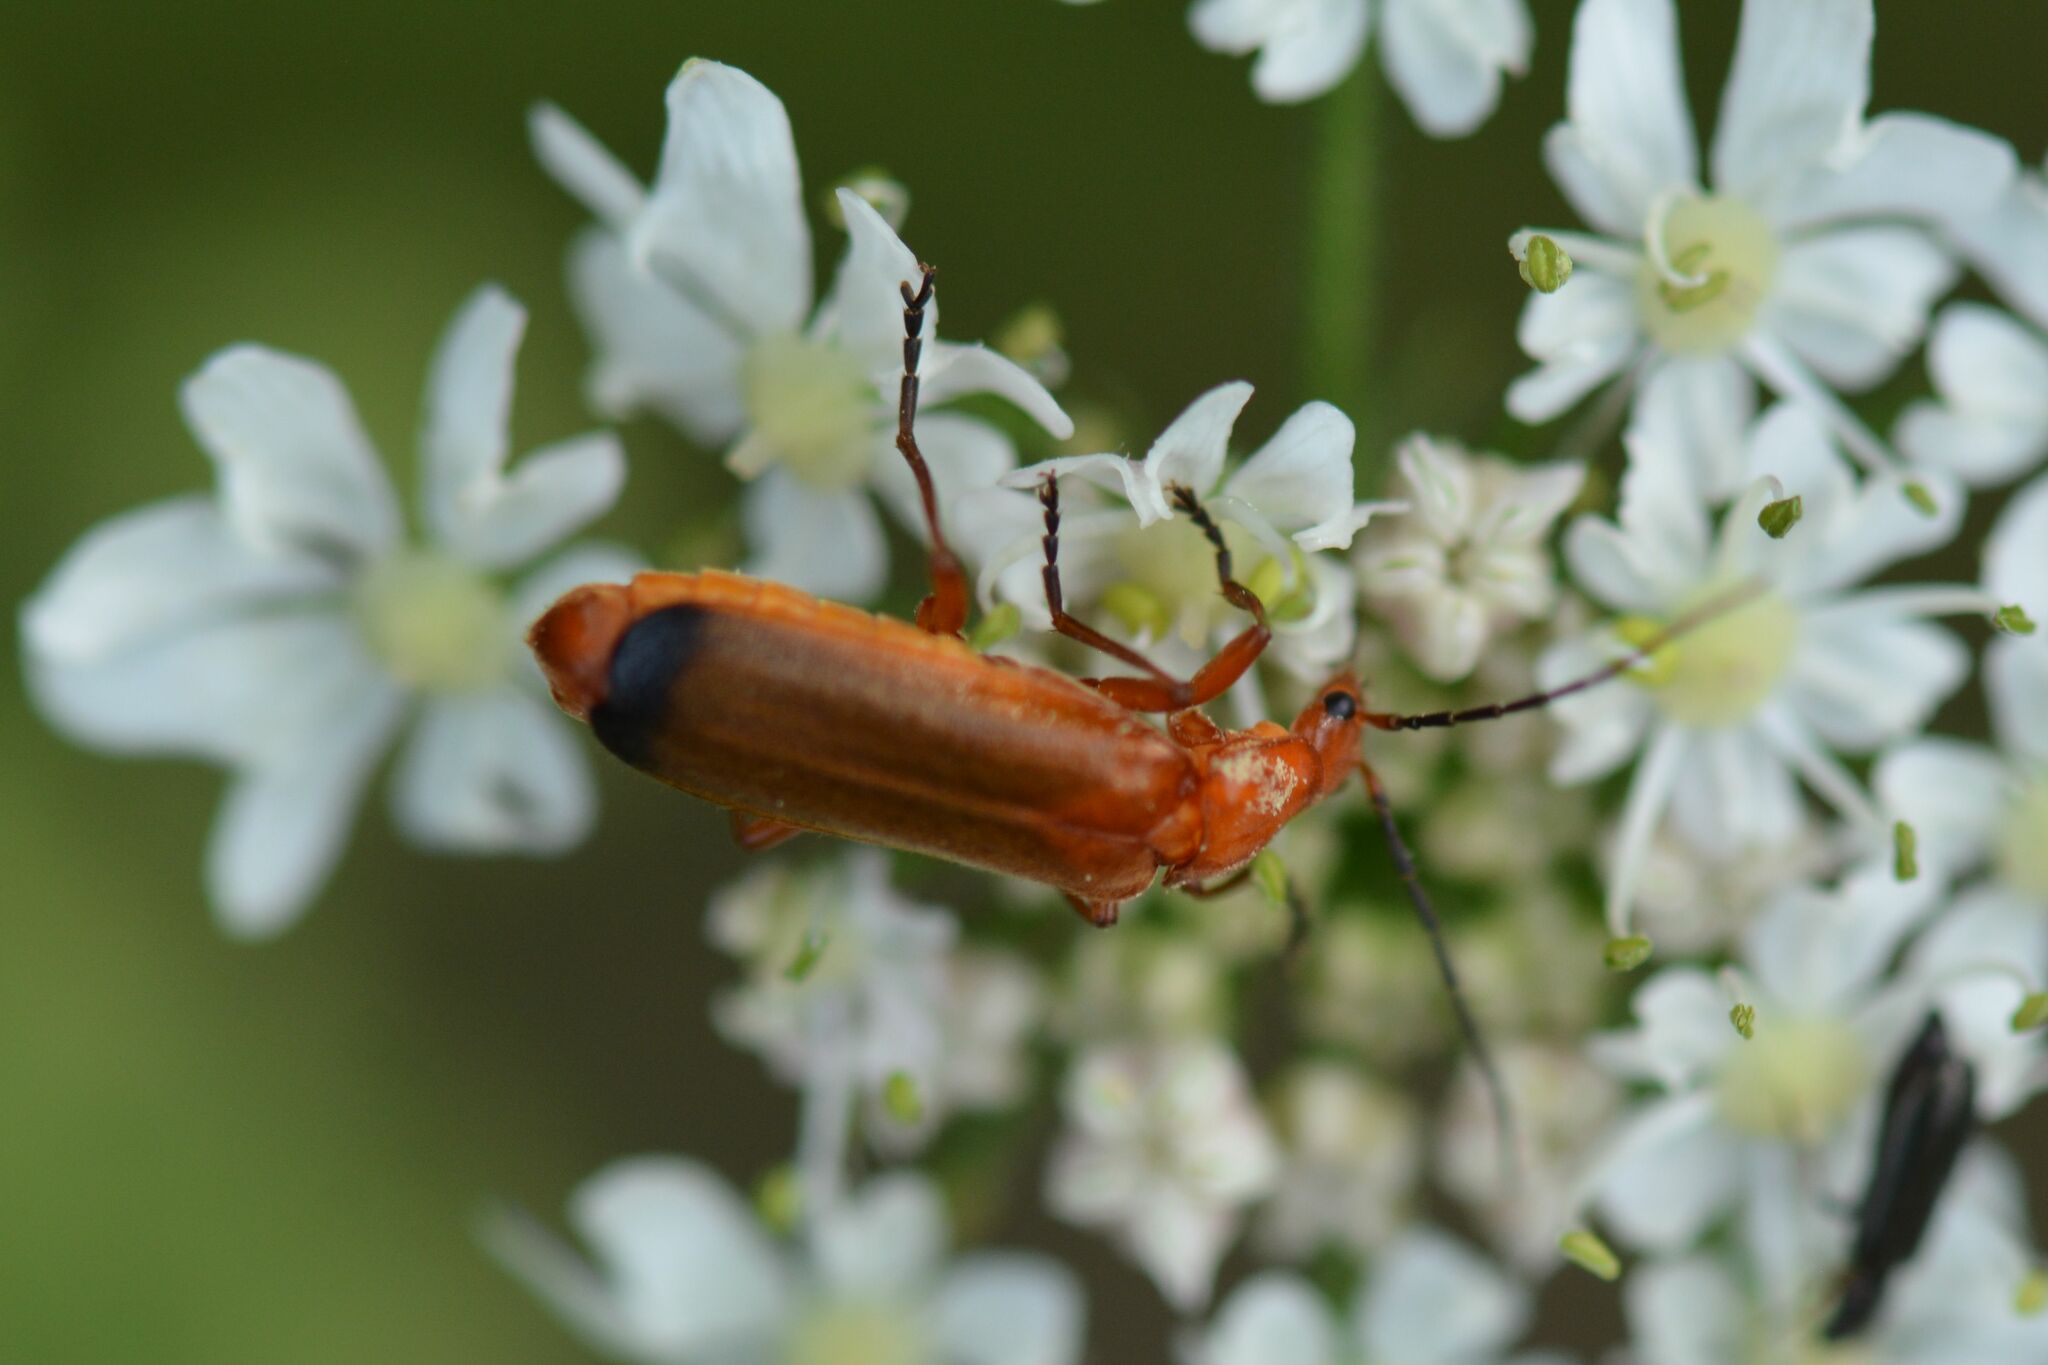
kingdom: Animalia
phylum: Arthropoda
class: Insecta
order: Coleoptera
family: Cantharidae
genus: Rhagonycha
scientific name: Rhagonycha fulva
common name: Common red soldier beetle
